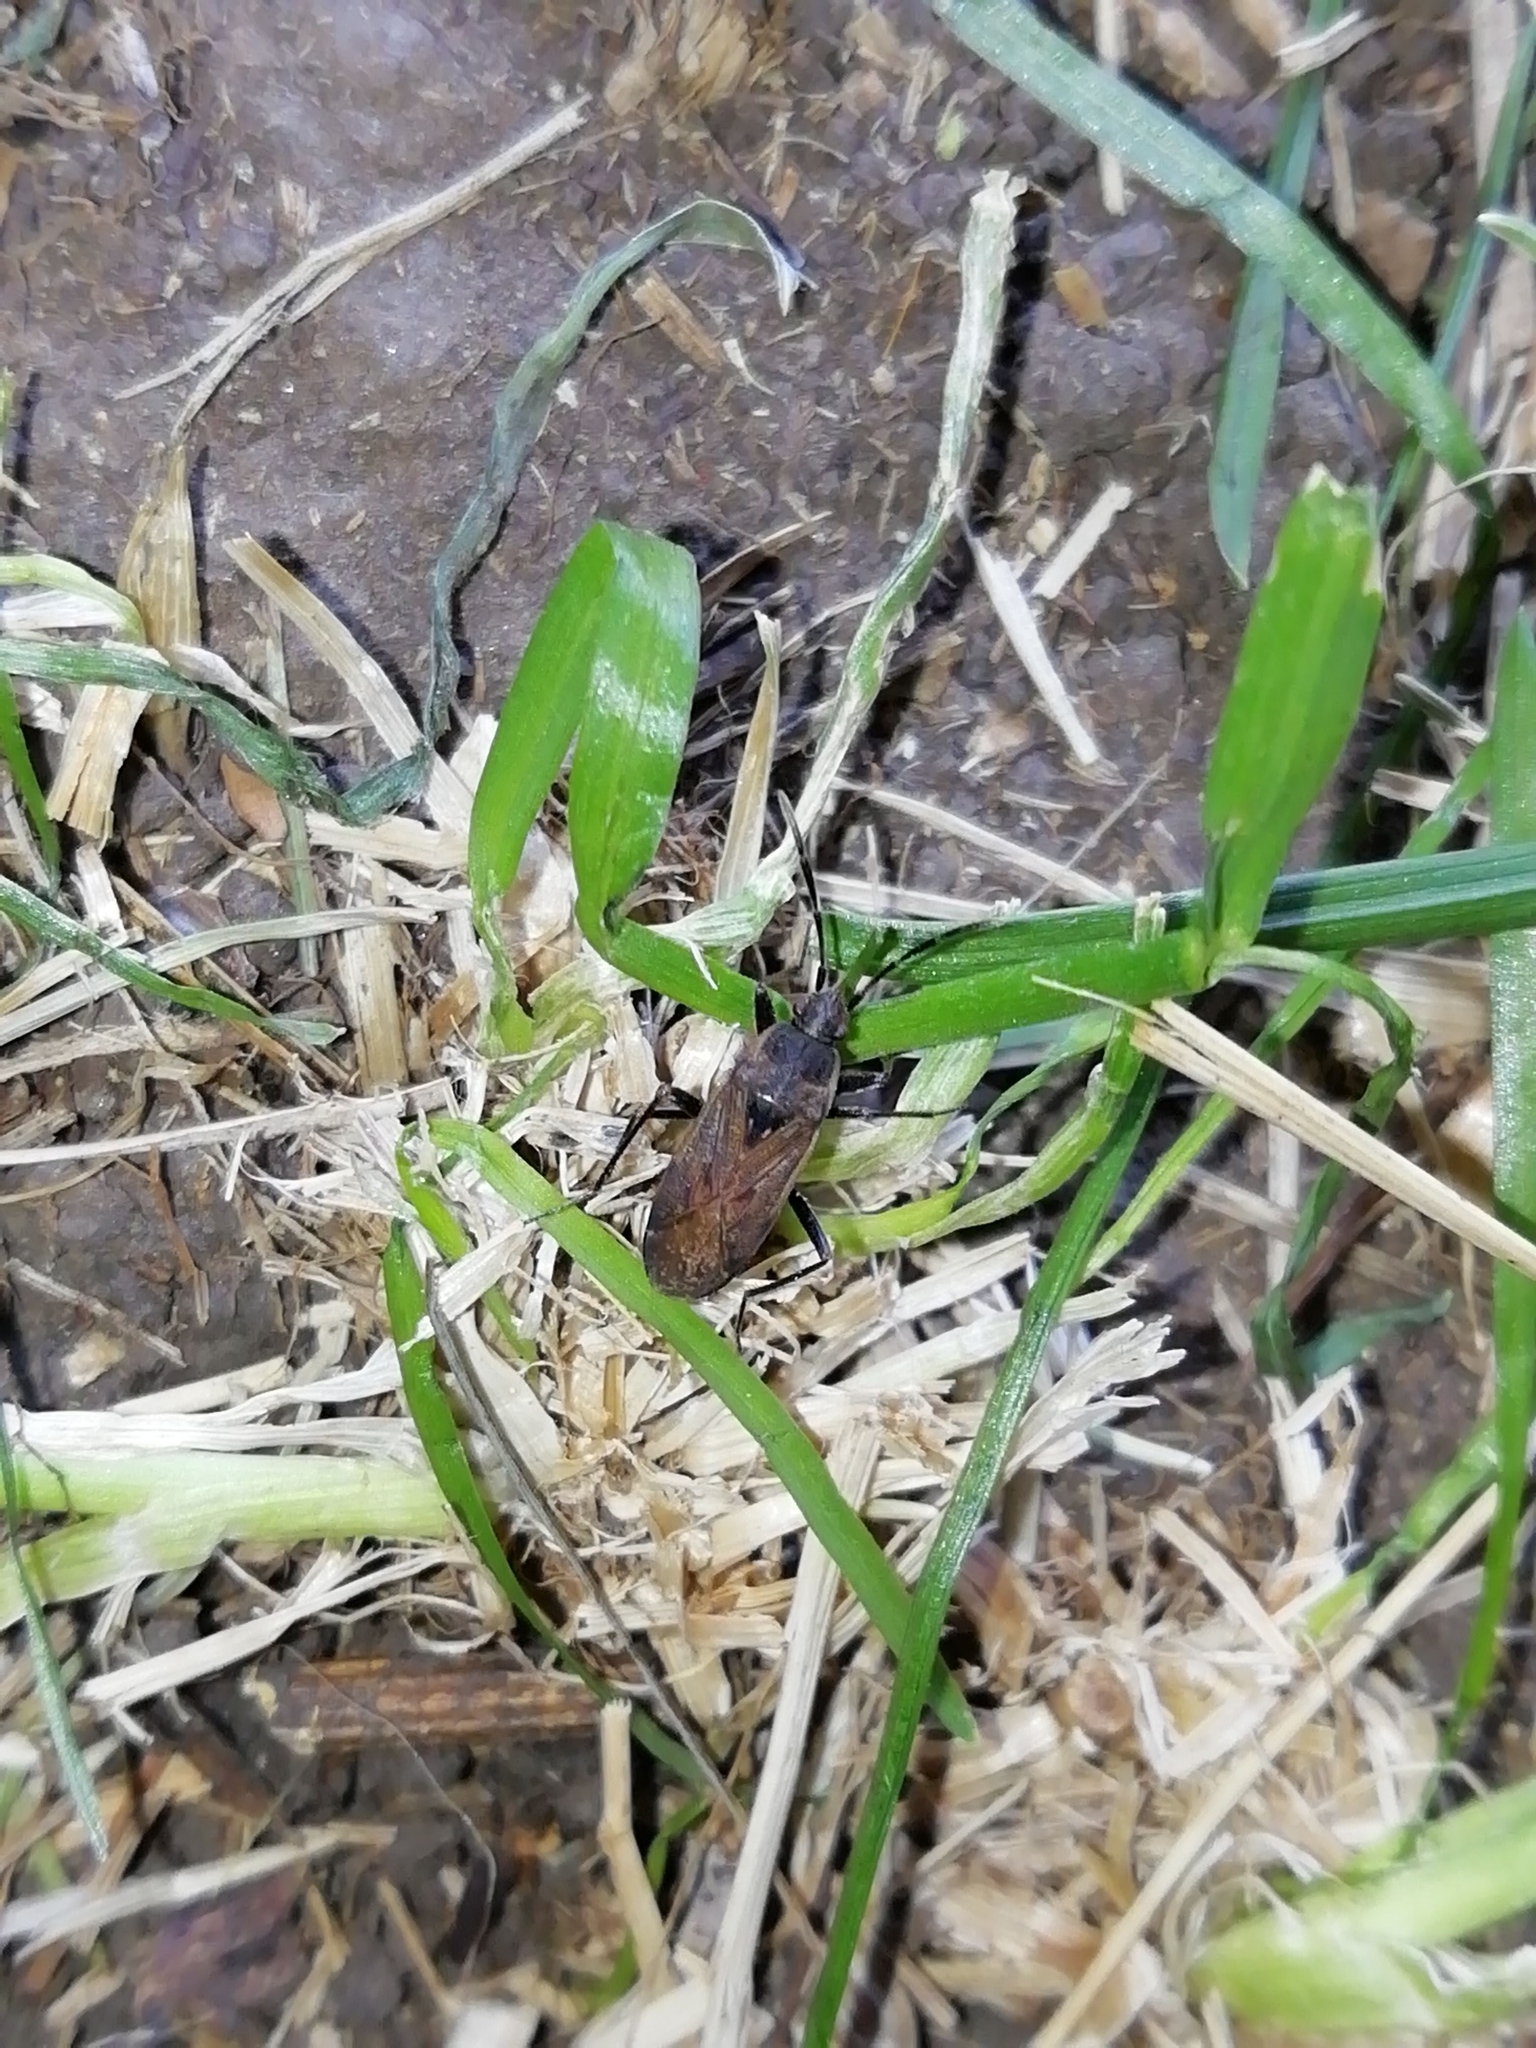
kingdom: Animalia
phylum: Arthropoda
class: Insecta
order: Hemiptera
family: Rhyparochromidae
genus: Panaorus
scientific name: Panaorus adspersus
